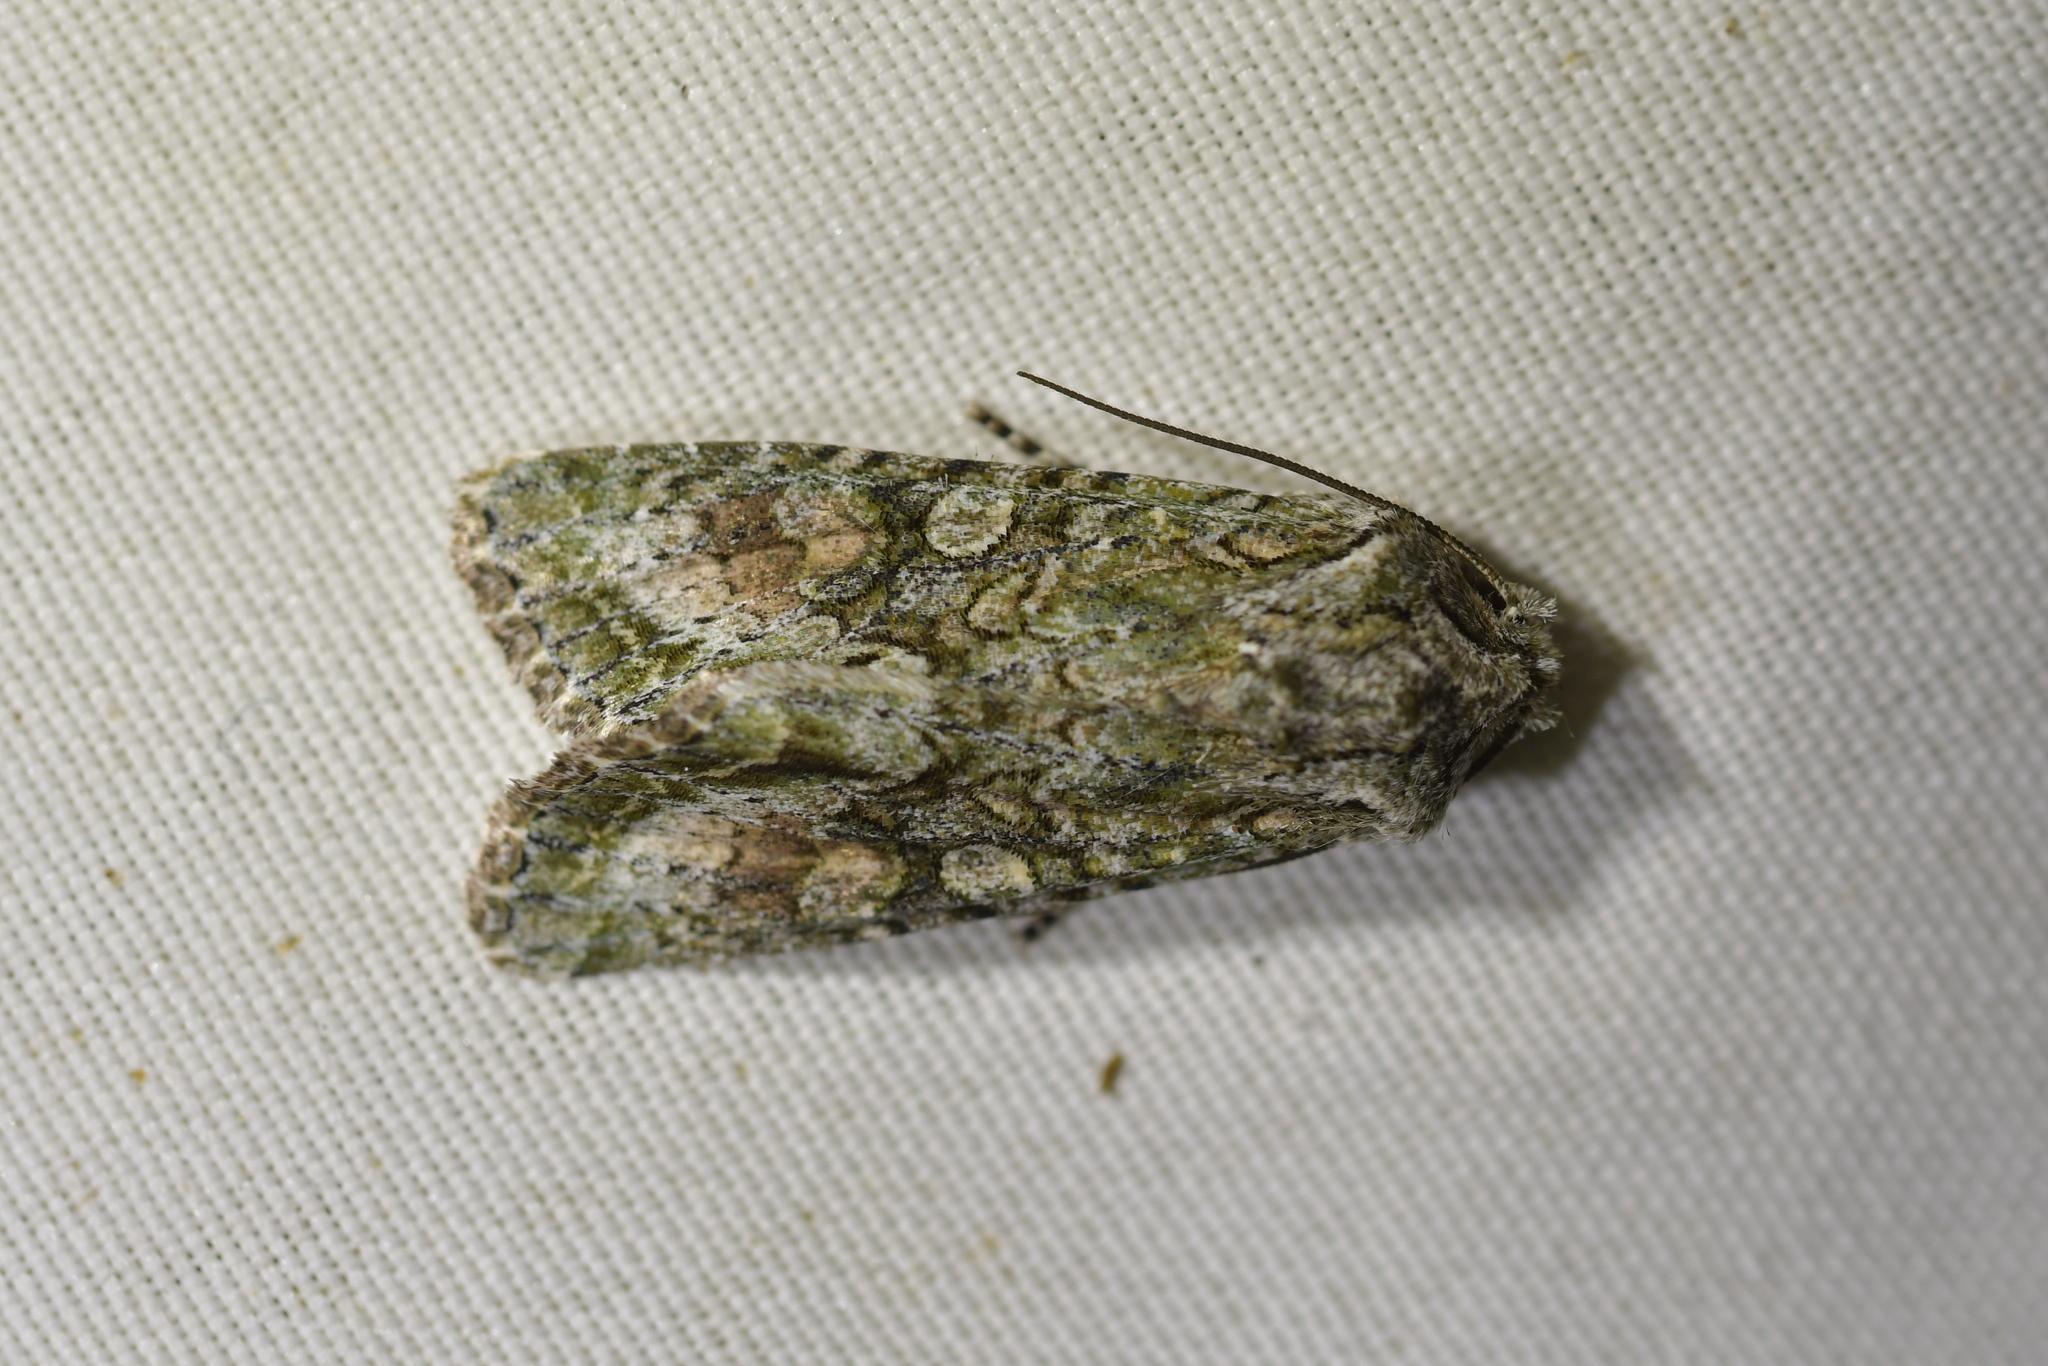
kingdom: Animalia
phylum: Arthropoda
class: Insecta
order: Lepidoptera
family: Noctuidae
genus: Ichneutica
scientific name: Ichneutica mutans
